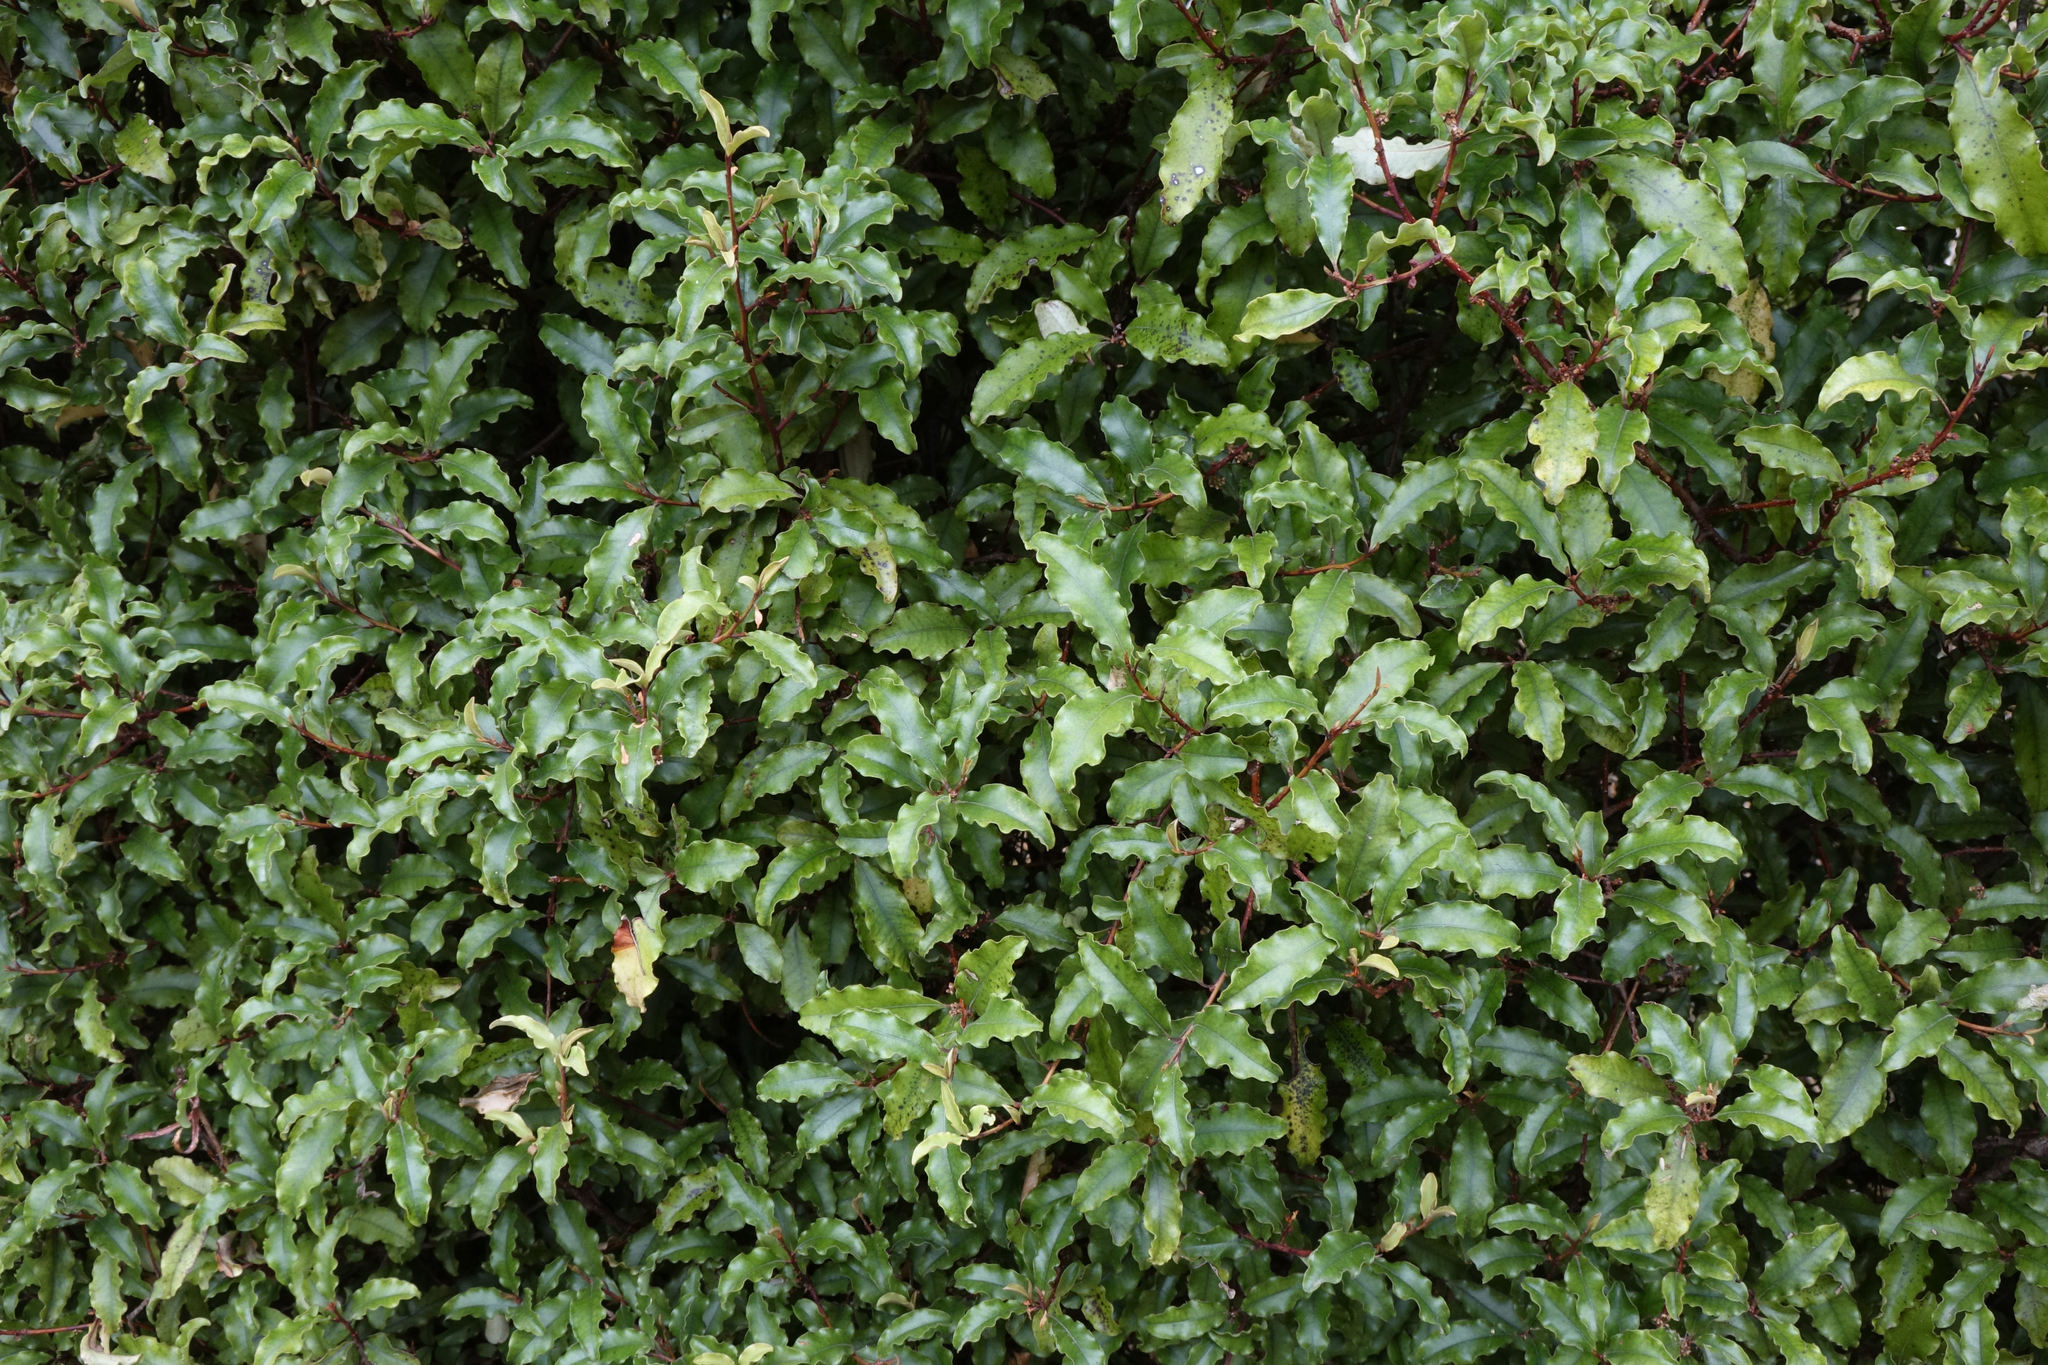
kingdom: Plantae
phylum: Tracheophyta
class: Magnoliopsida
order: Ericales
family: Primulaceae
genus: Myrsine
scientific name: Myrsine australis
